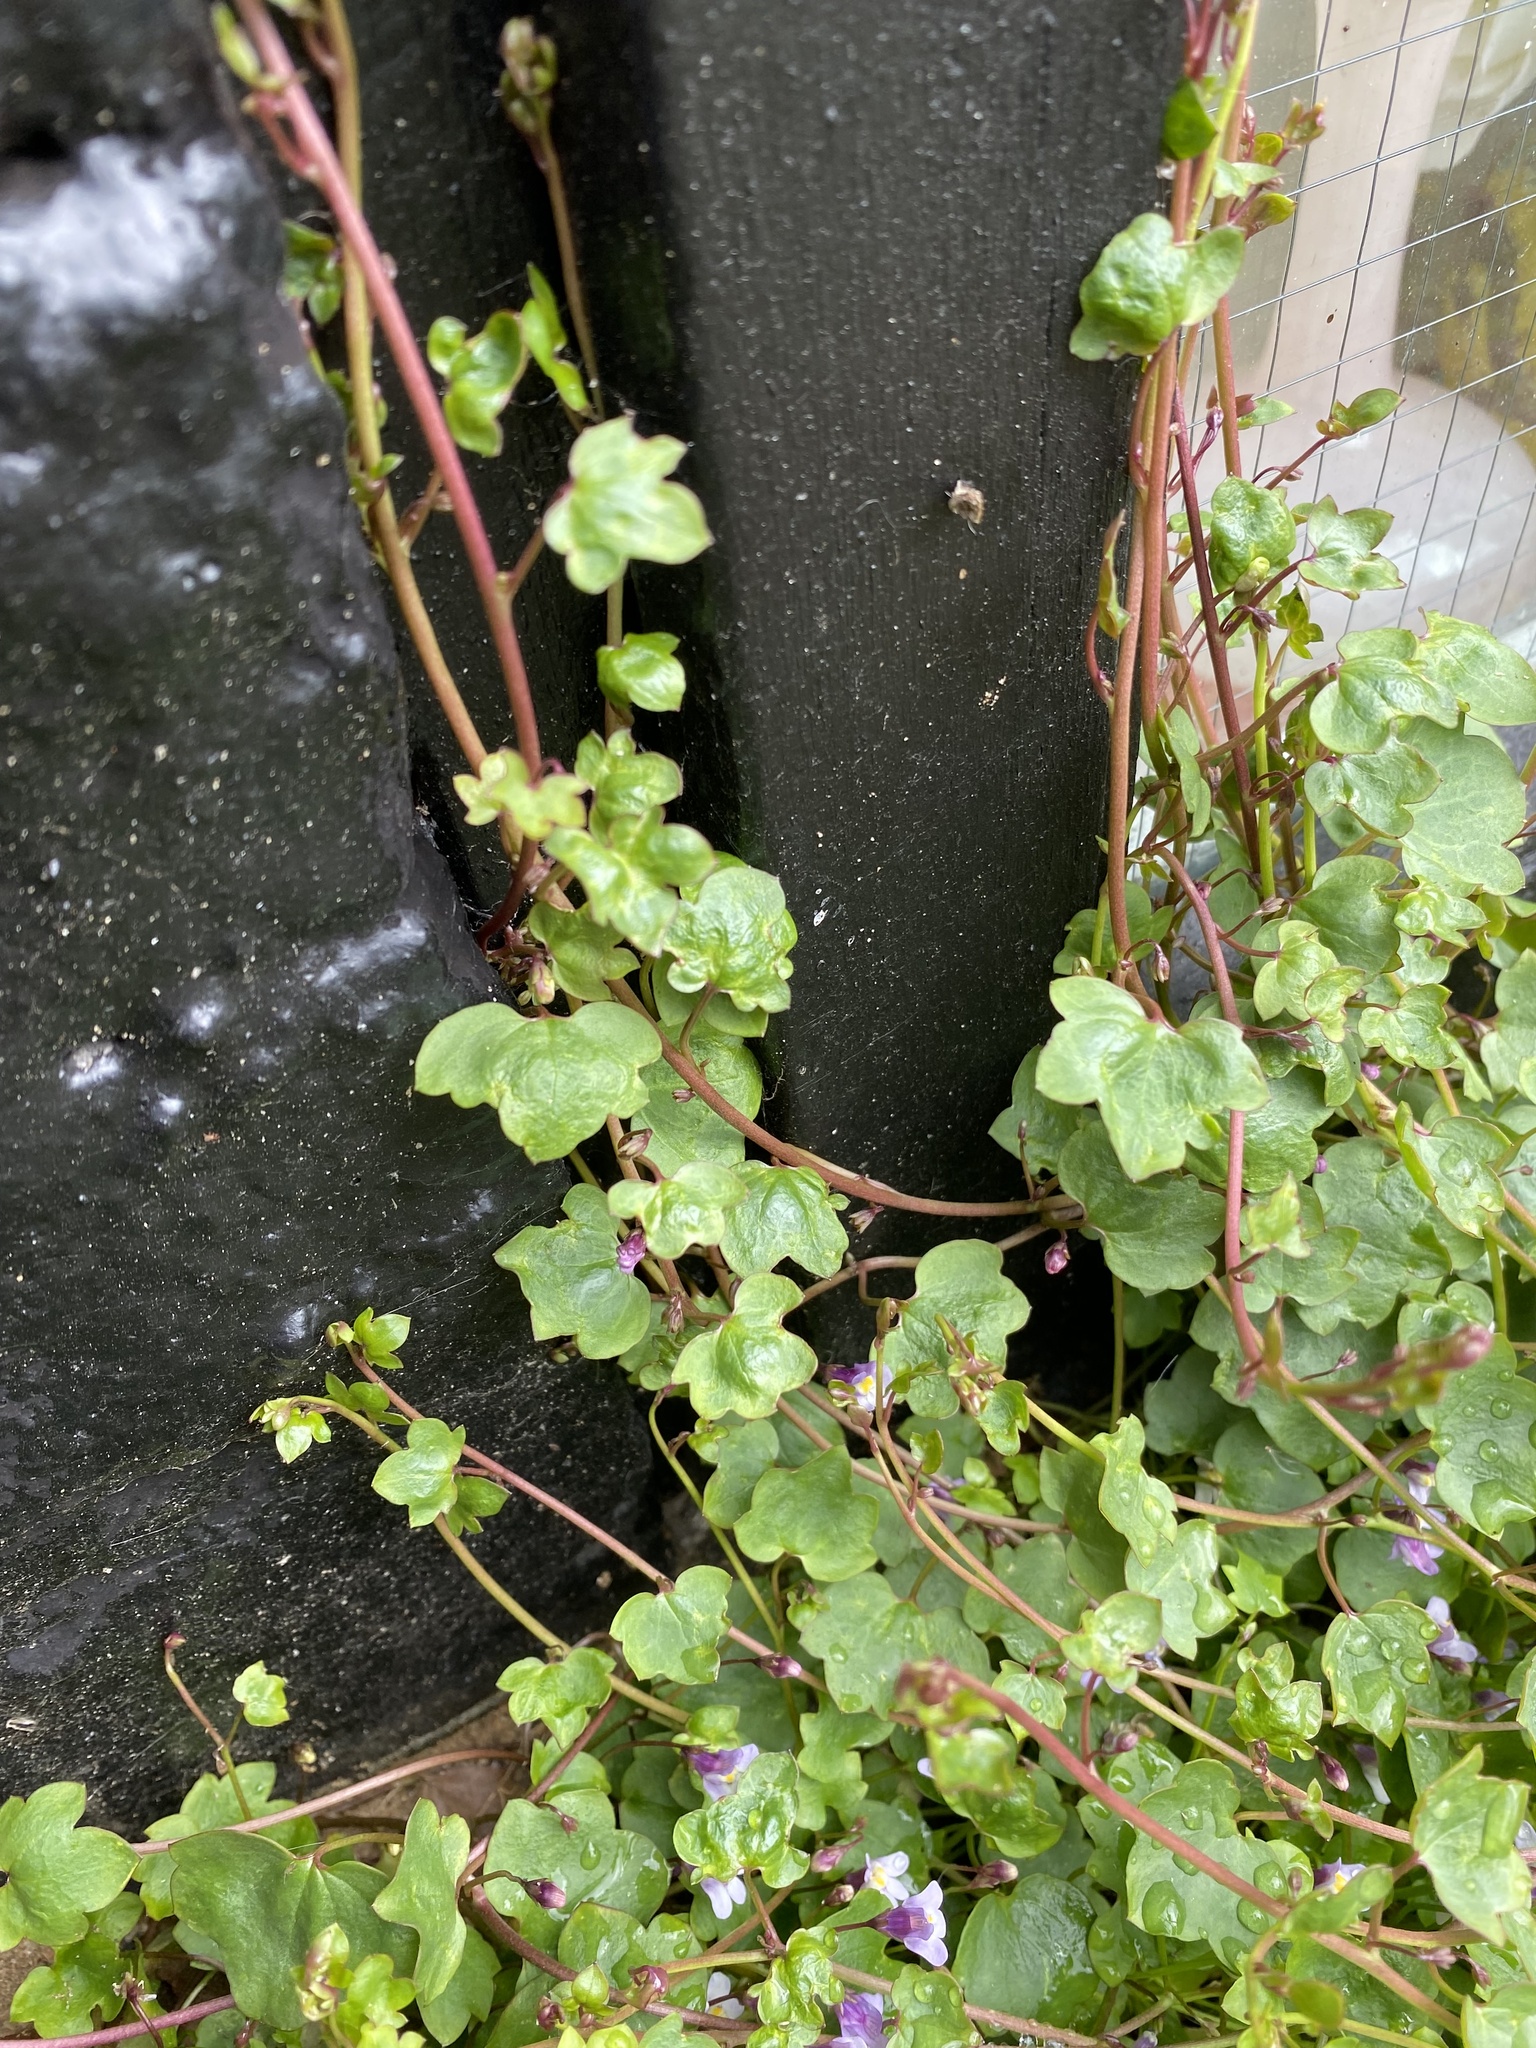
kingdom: Plantae
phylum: Tracheophyta
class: Magnoliopsida
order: Lamiales
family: Plantaginaceae
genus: Cymbalaria
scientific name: Cymbalaria muralis
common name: Ivy-leaved toadflax
